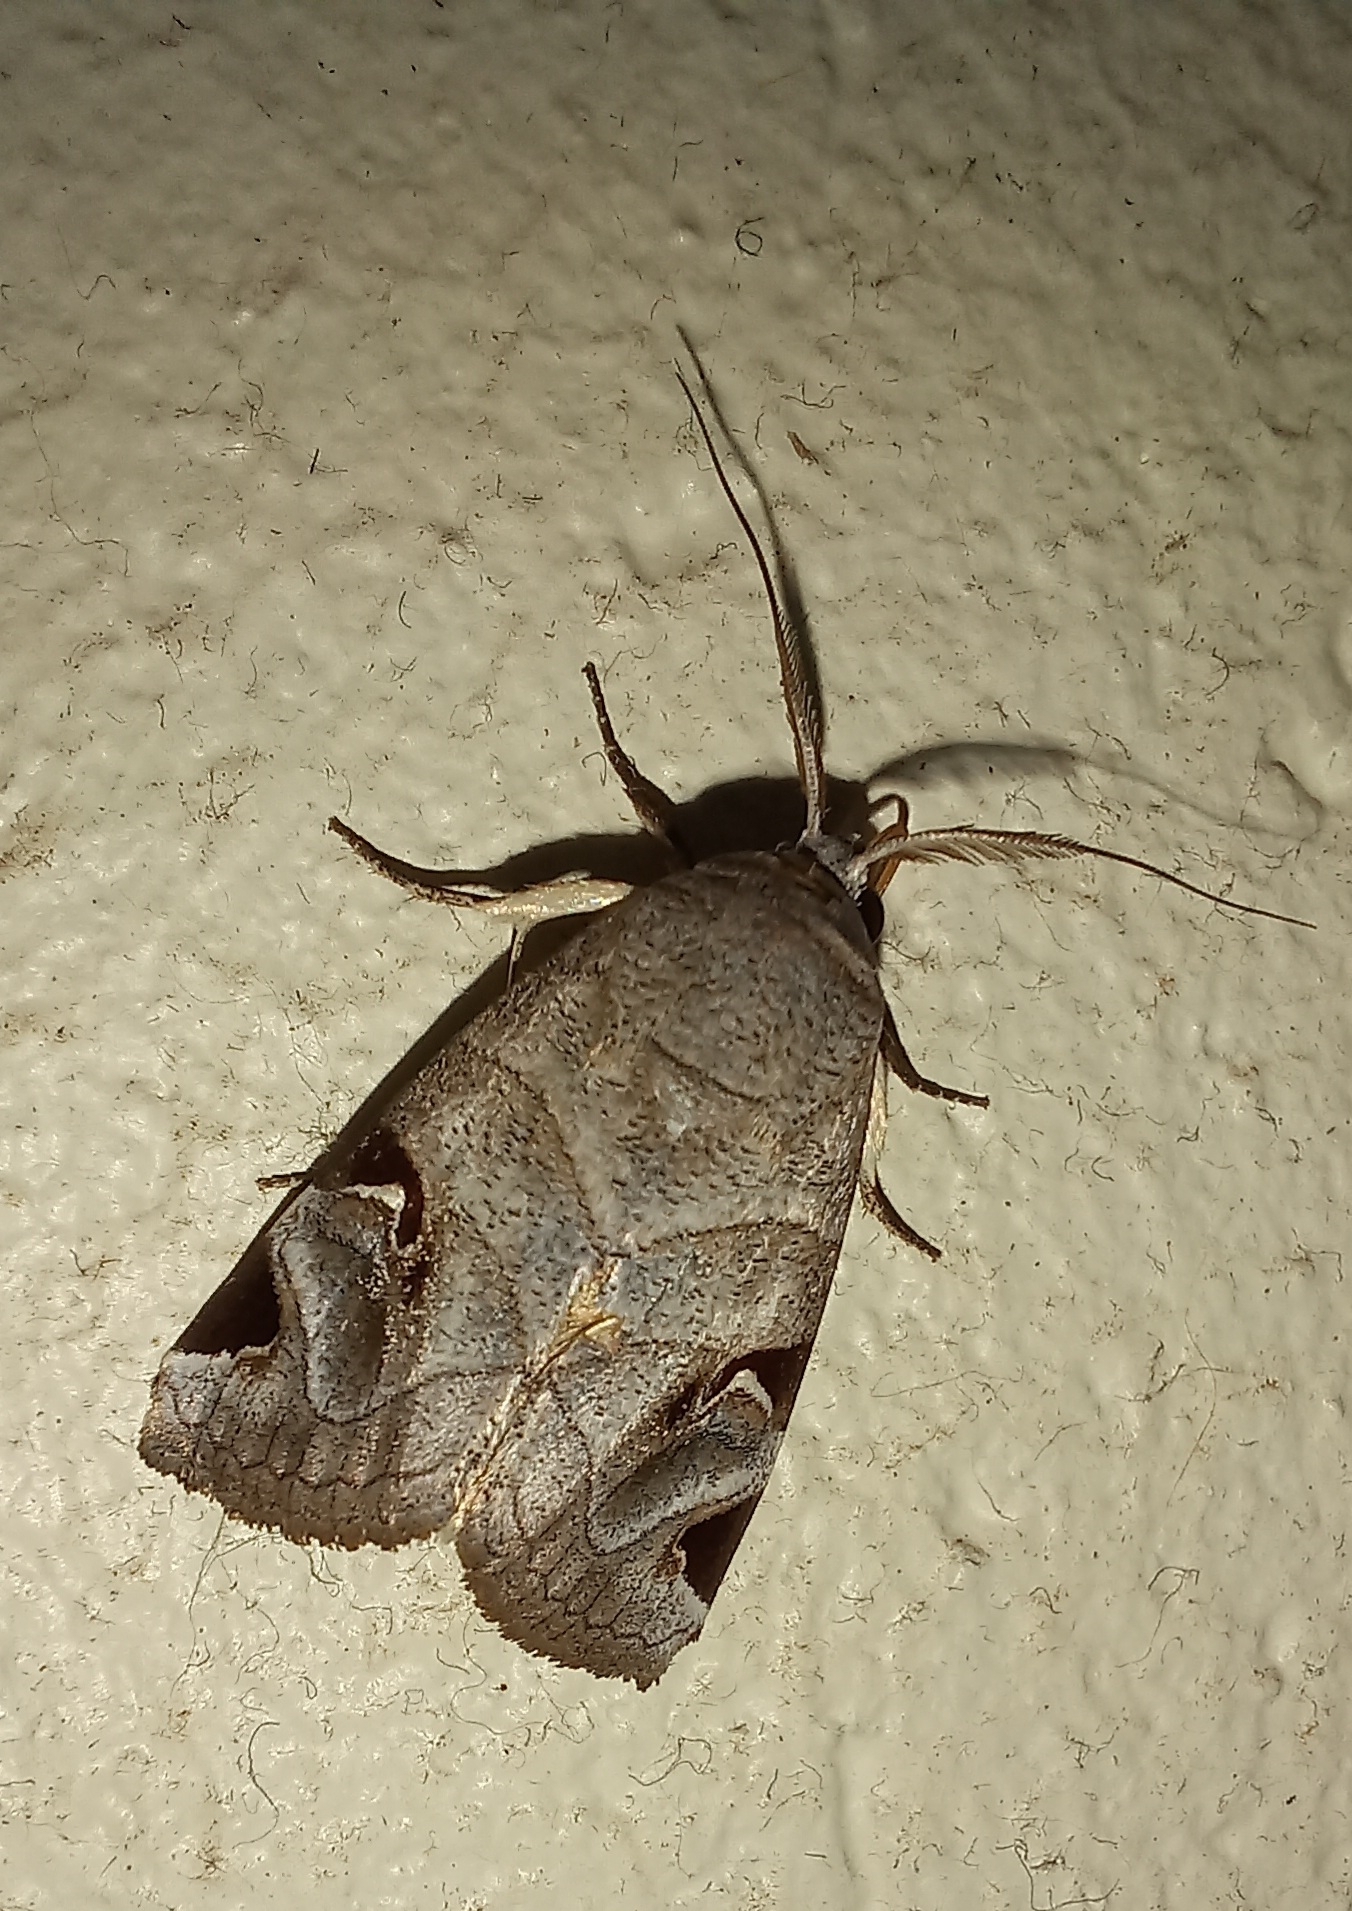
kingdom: Animalia
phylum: Arthropoda
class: Insecta
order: Lepidoptera
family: Erebidae
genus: Brevipecten
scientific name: Brevipecten cornuta
